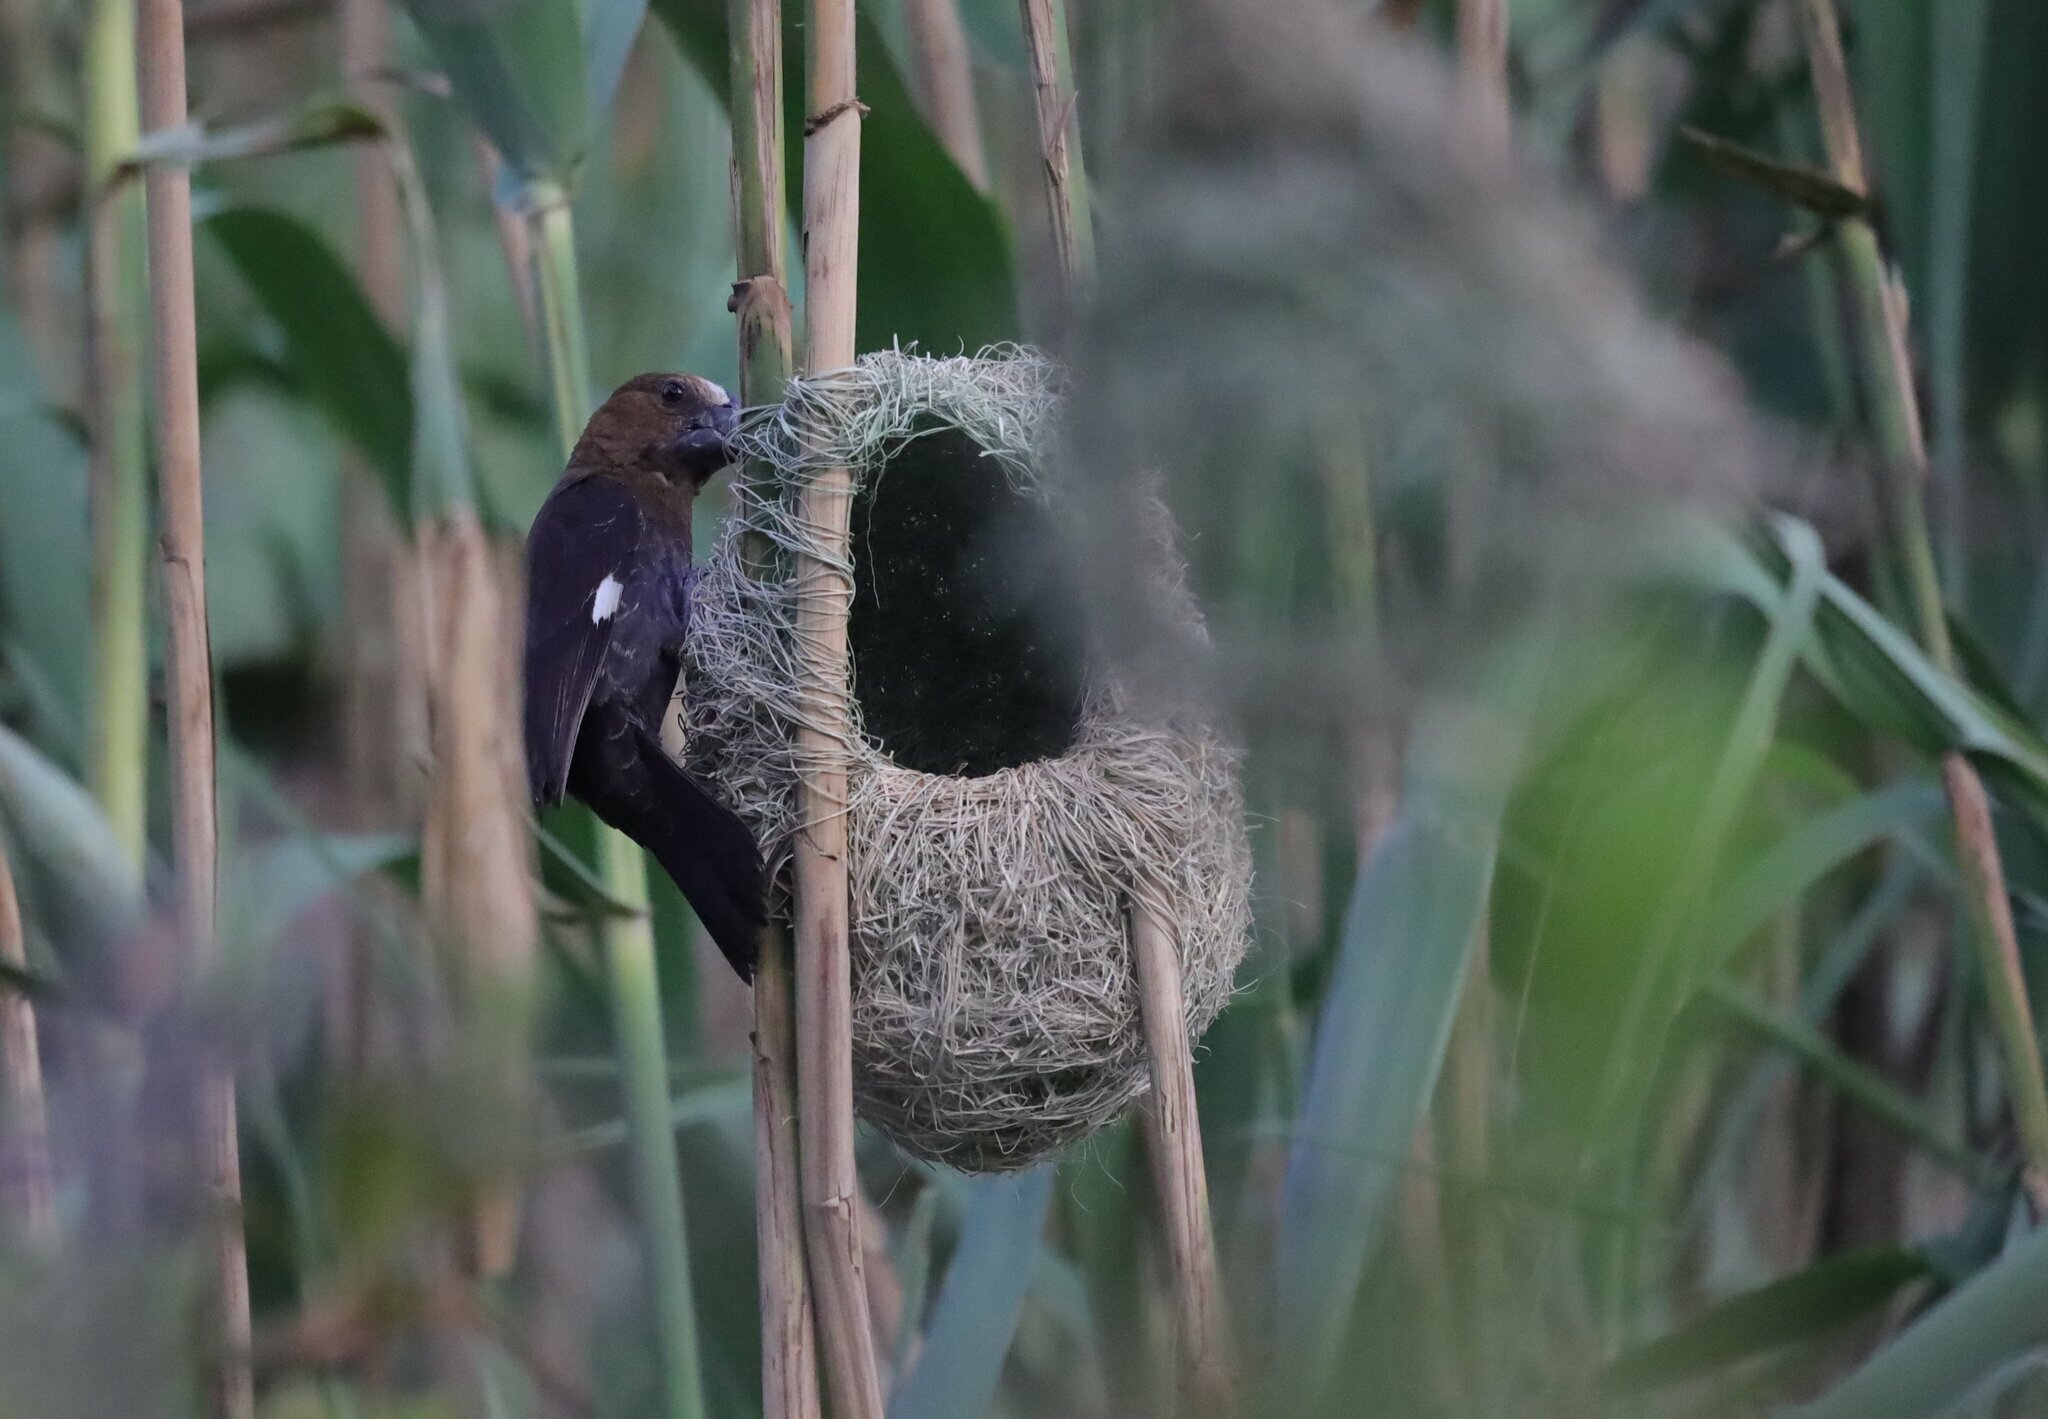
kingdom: Animalia
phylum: Chordata
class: Aves
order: Passeriformes
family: Ploceidae
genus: Amblyospiza
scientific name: Amblyospiza albifrons
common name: Thick-billed weaver
